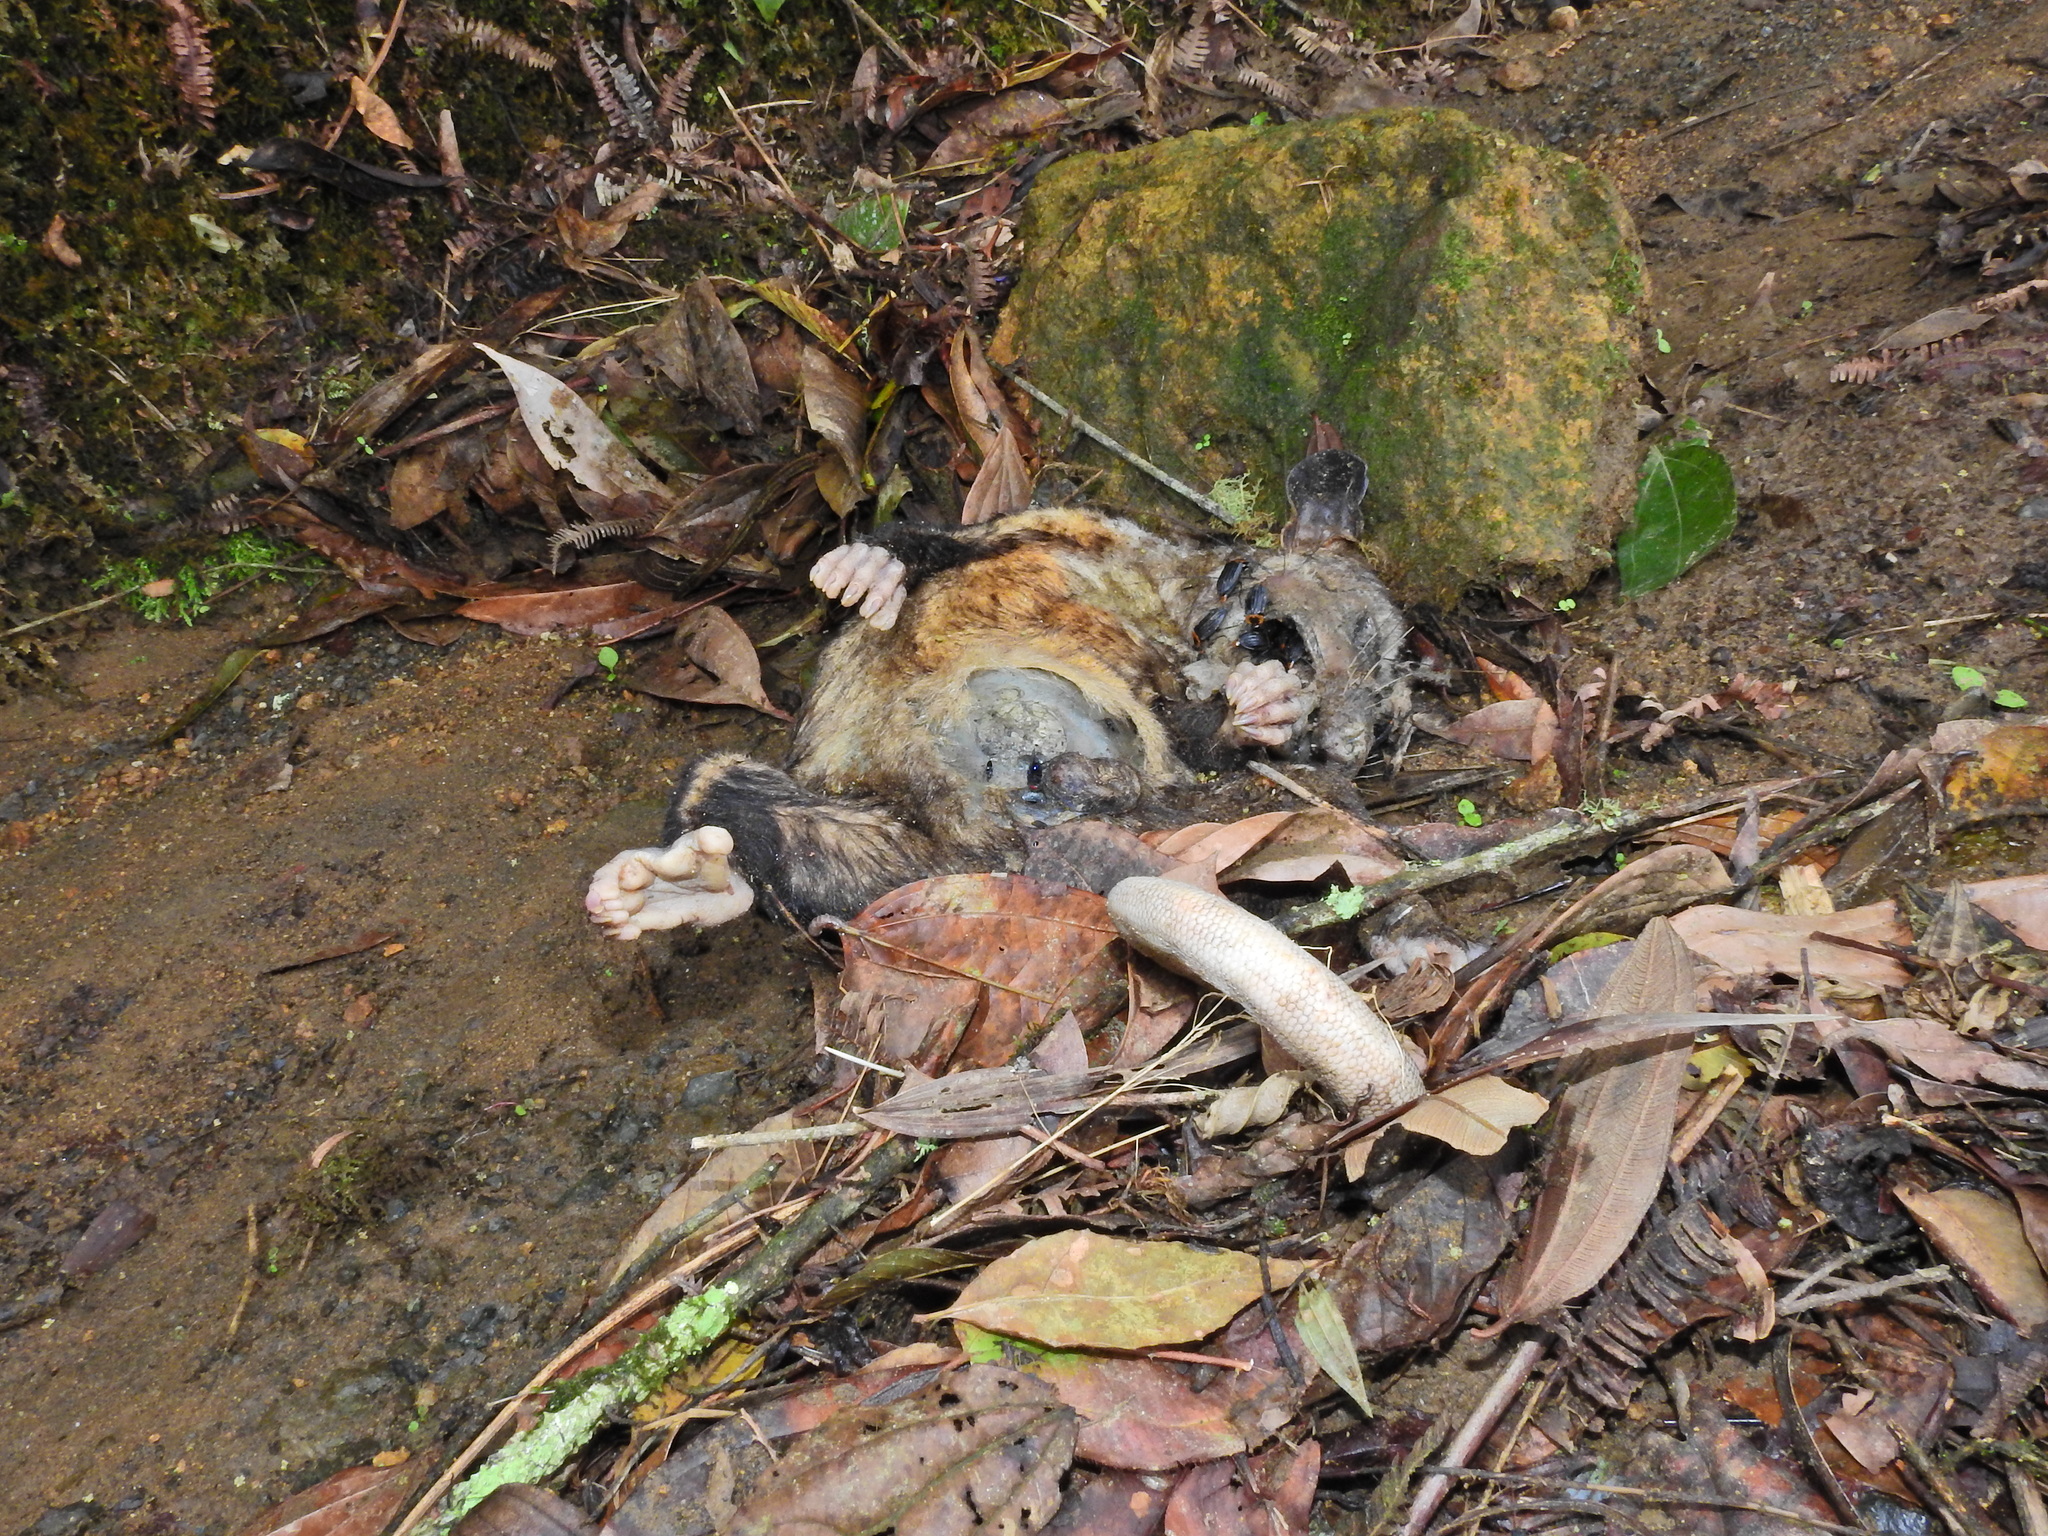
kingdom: Animalia
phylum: Chordata
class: Mammalia
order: Didelphimorphia
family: Didelphidae
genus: Didelphis
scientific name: Didelphis marsupialis
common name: Common opossum
